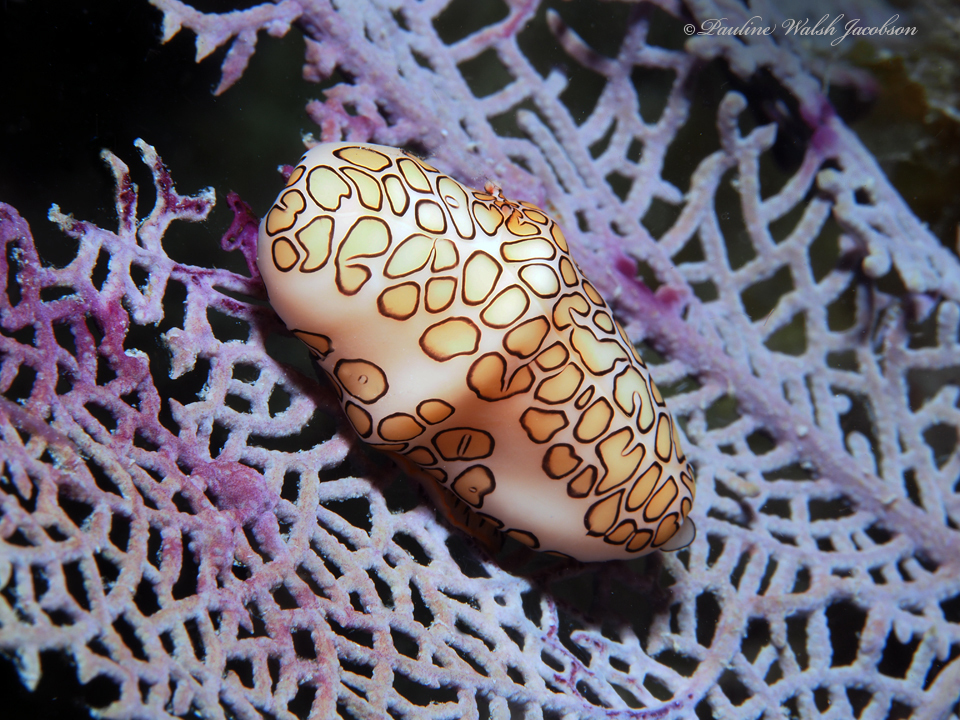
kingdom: Animalia
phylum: Mollusca
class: Gastropoda
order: Littorinimorpha
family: Ovulidae
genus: Cyphoma
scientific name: Cyphoma gibbosum
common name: Flamingo tongue
